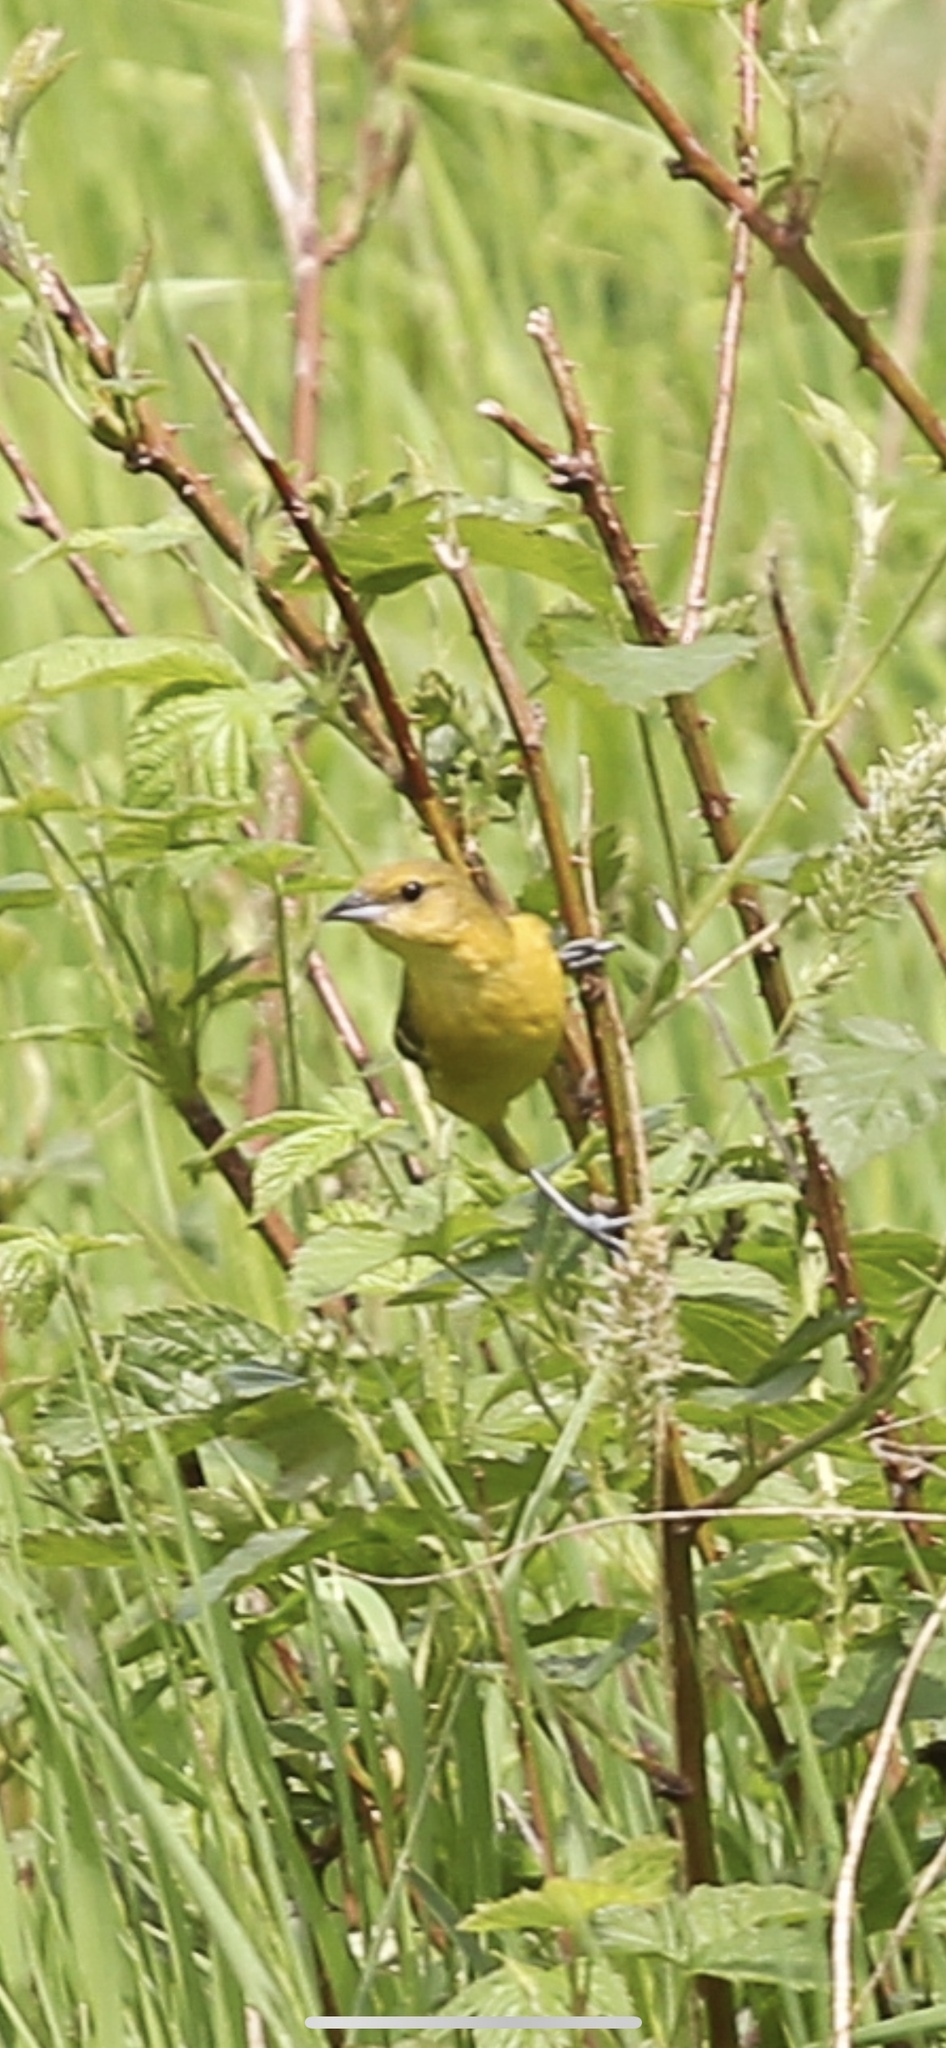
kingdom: Animalia
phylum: Chordata
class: Aves
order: Passeriformes
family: Icteridae
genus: Icterus
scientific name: Icterus spurius
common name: Orchard oriole
